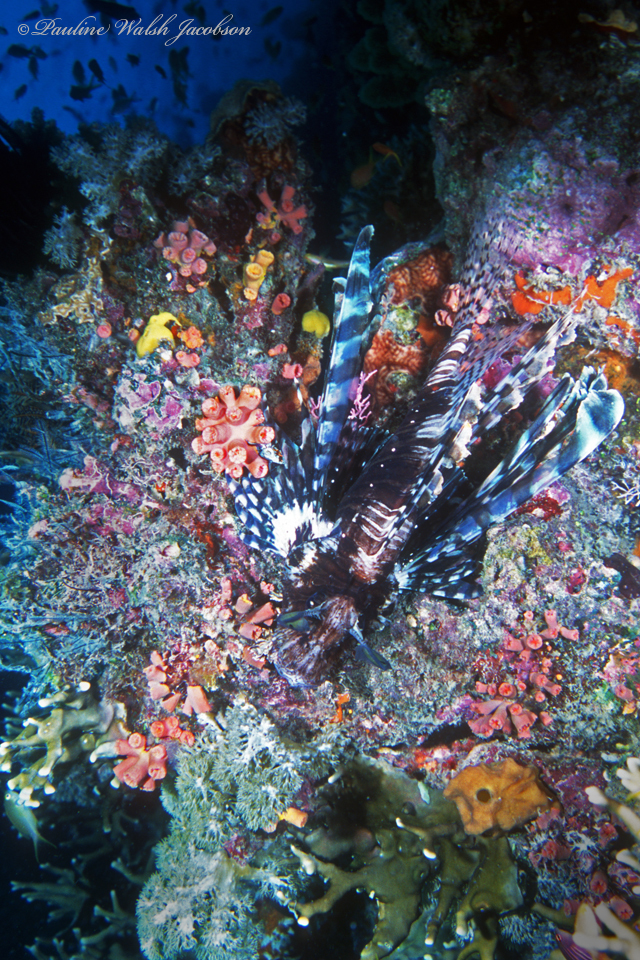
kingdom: Animalia
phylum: Chordata
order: Scorpaeniformes
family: Scorpaenidae
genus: Pterois
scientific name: Pterois volitans
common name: Lionfish
